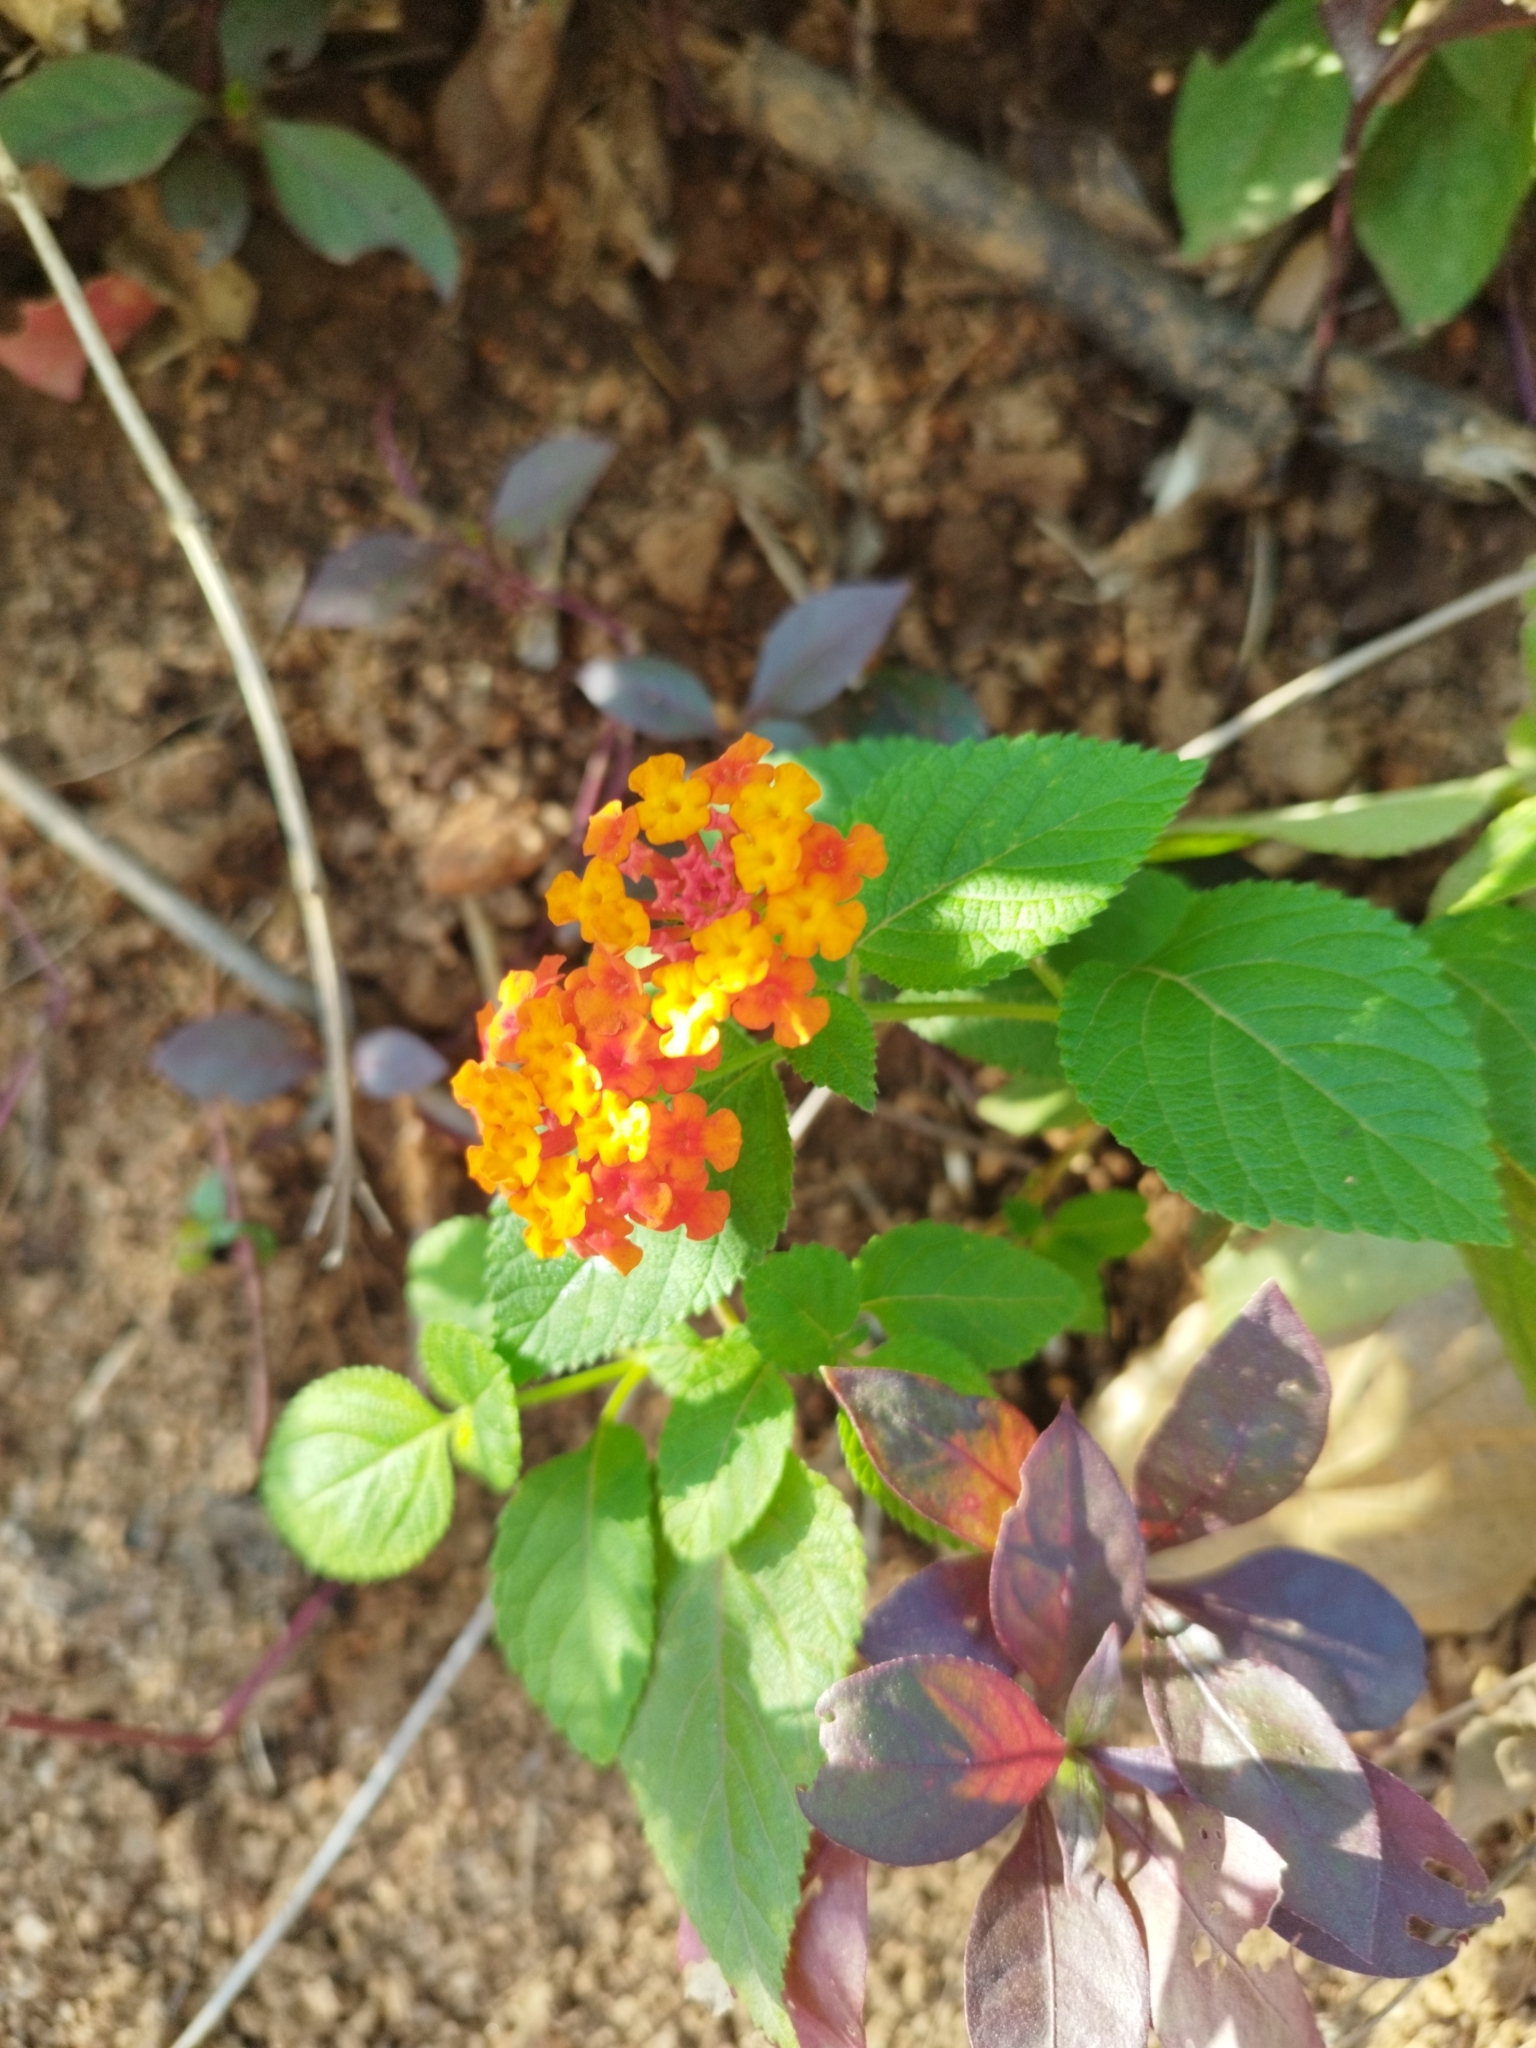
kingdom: Plantae
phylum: Tracheophyta
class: Magnoliopsida
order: Lamiales
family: Verbenaceae
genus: Lantana
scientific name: Lantana camara
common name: Lantana
